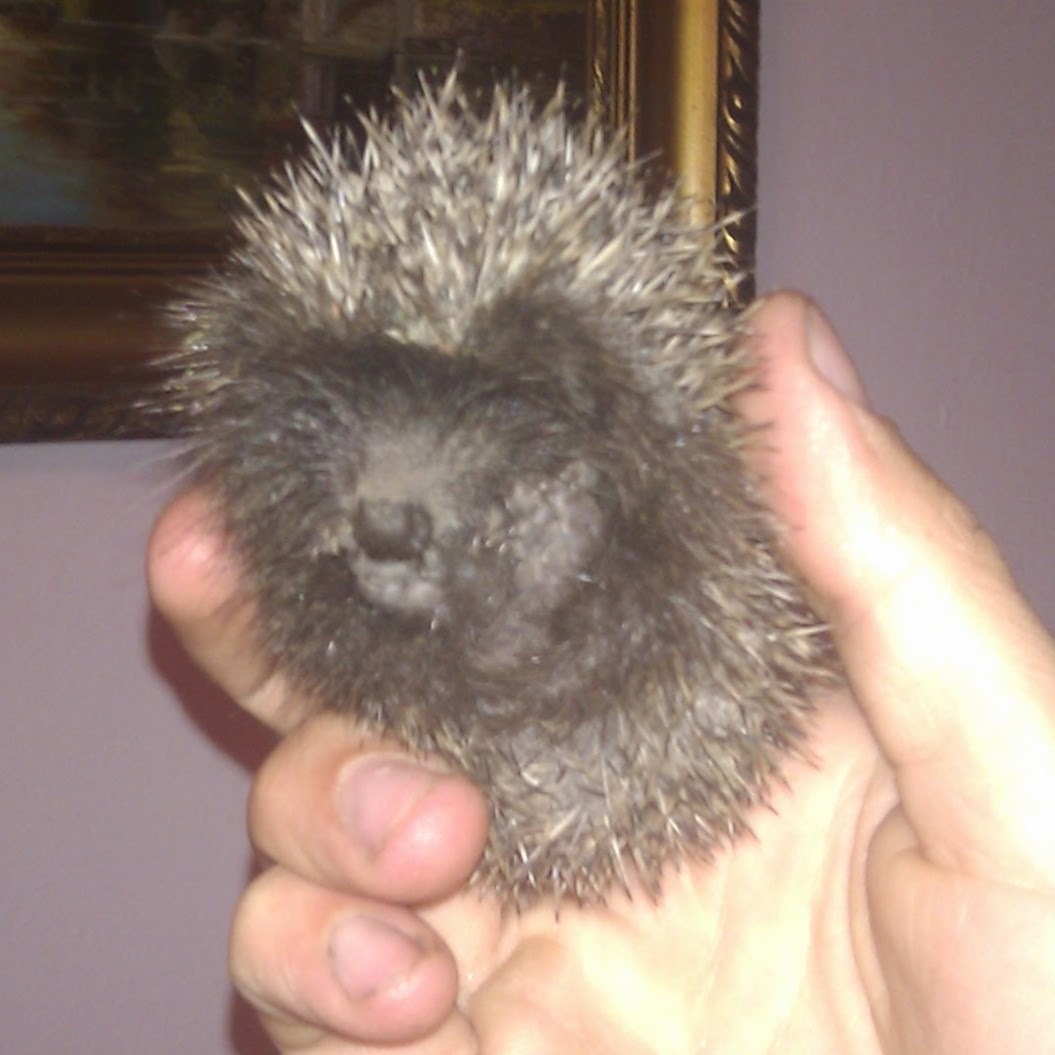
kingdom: Animalia
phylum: Chordata
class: Mammalia
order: Erinaceomorpha
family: Erinaceidae
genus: Erinaceus
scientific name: Erinaceus roumanicus
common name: Northern white-breasted hedgehog
